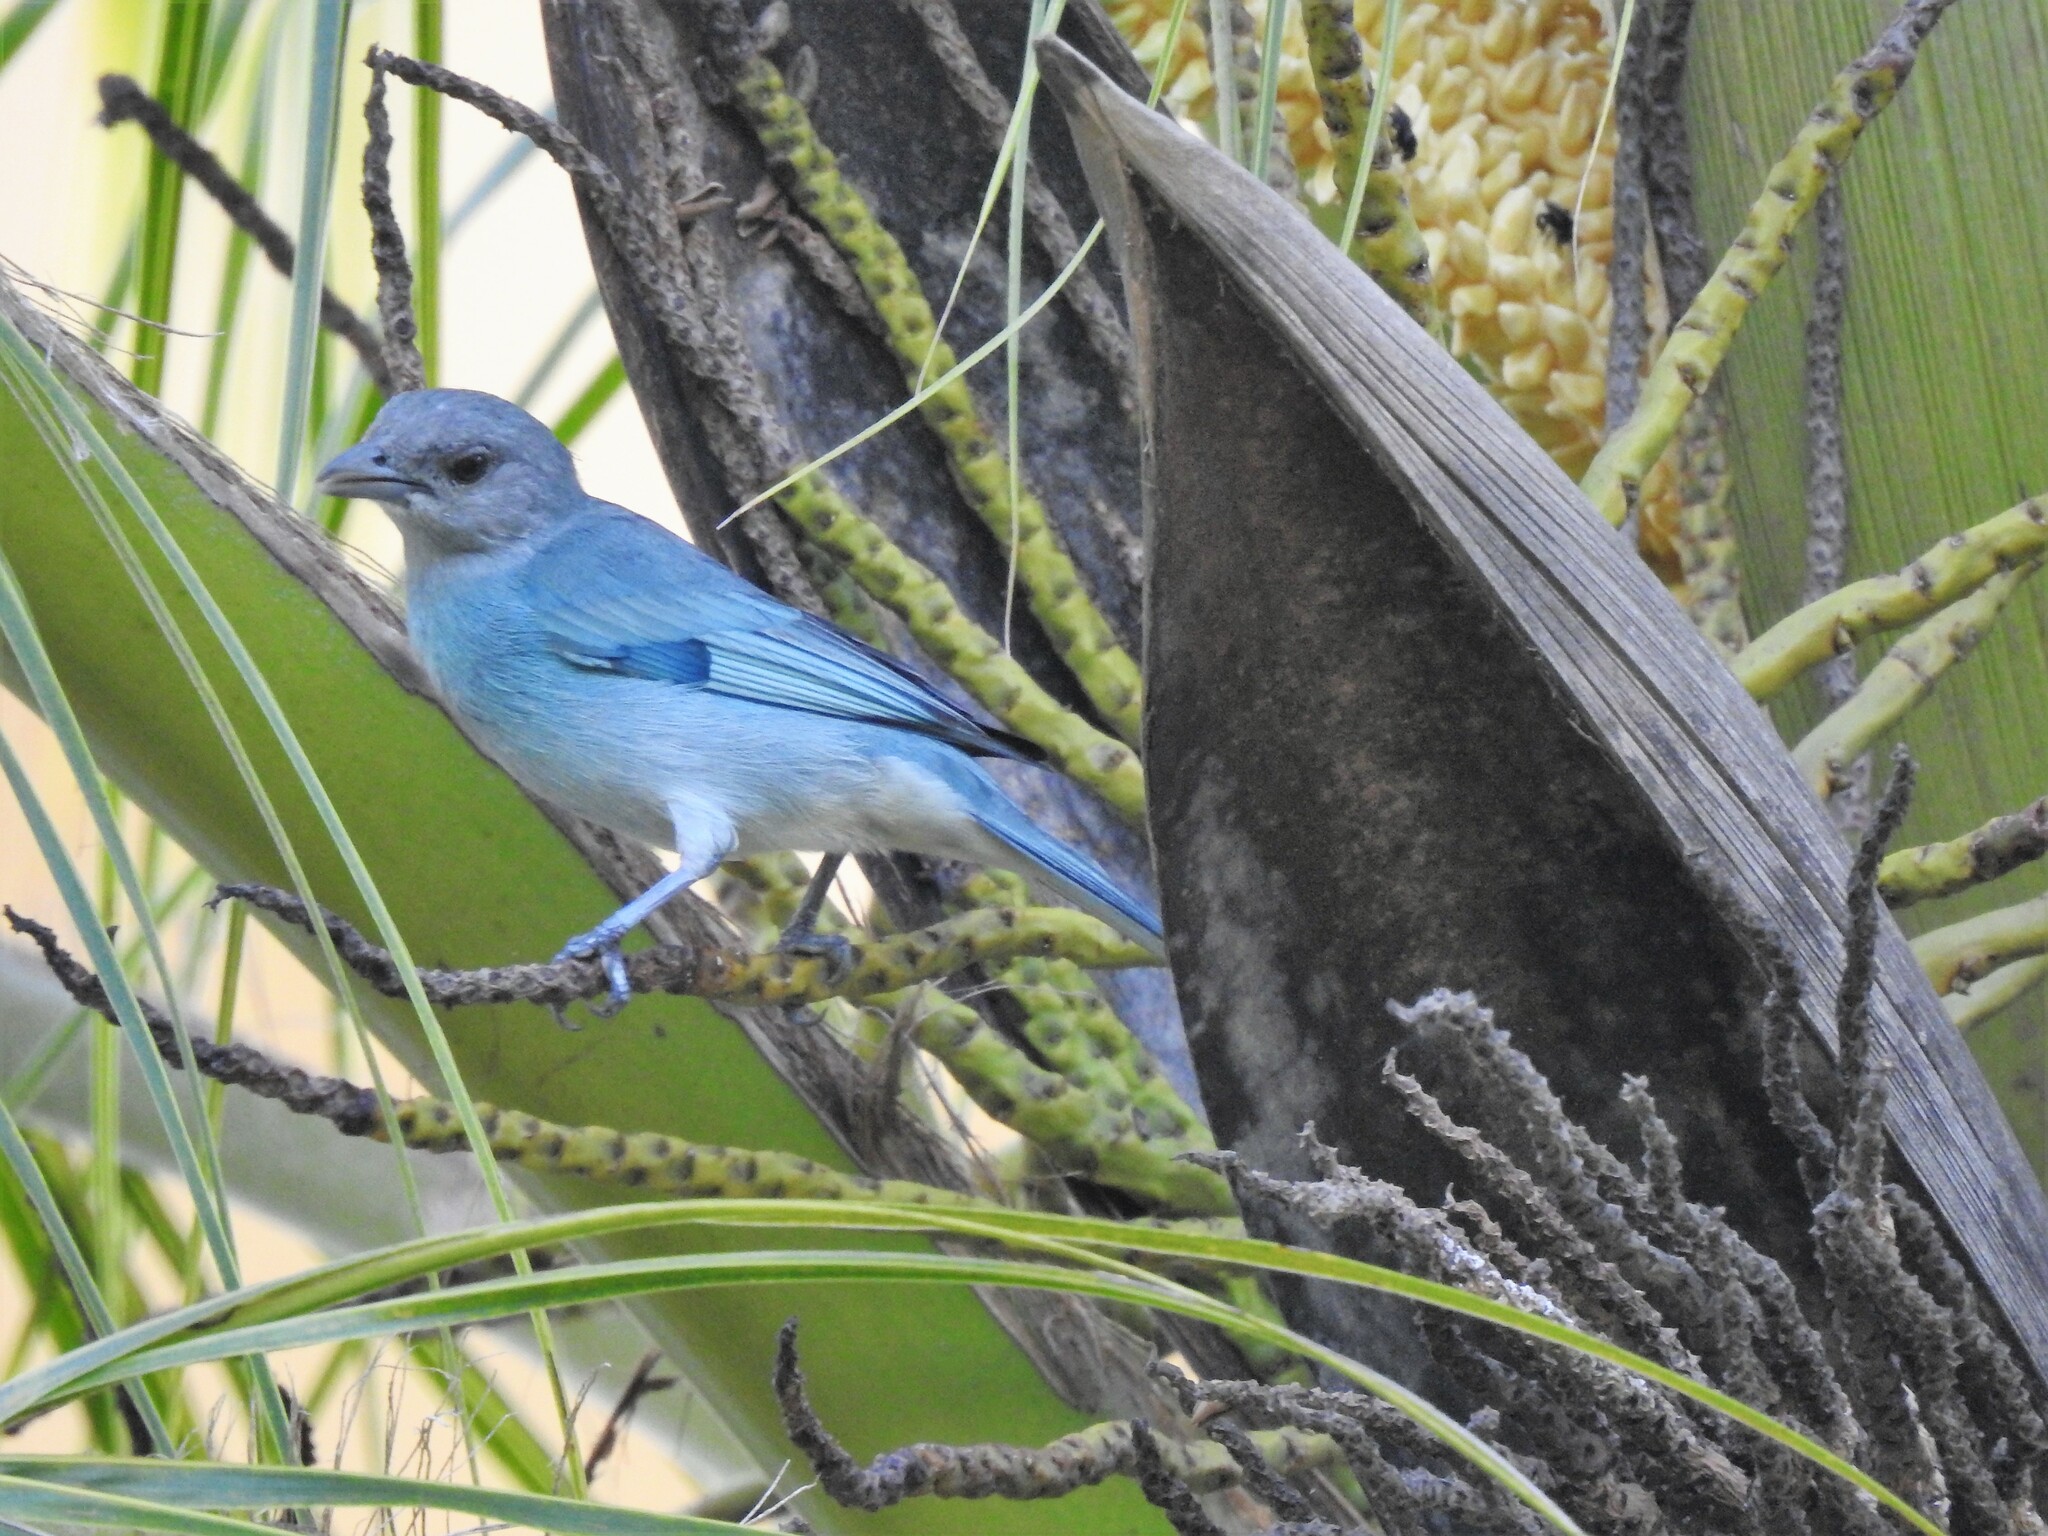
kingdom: Animalia
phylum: Chordata
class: Aves
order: Passeriformes
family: Thraupidae
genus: Thraupis
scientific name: Thraupis glaucocolpa
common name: Glaucous tanager
